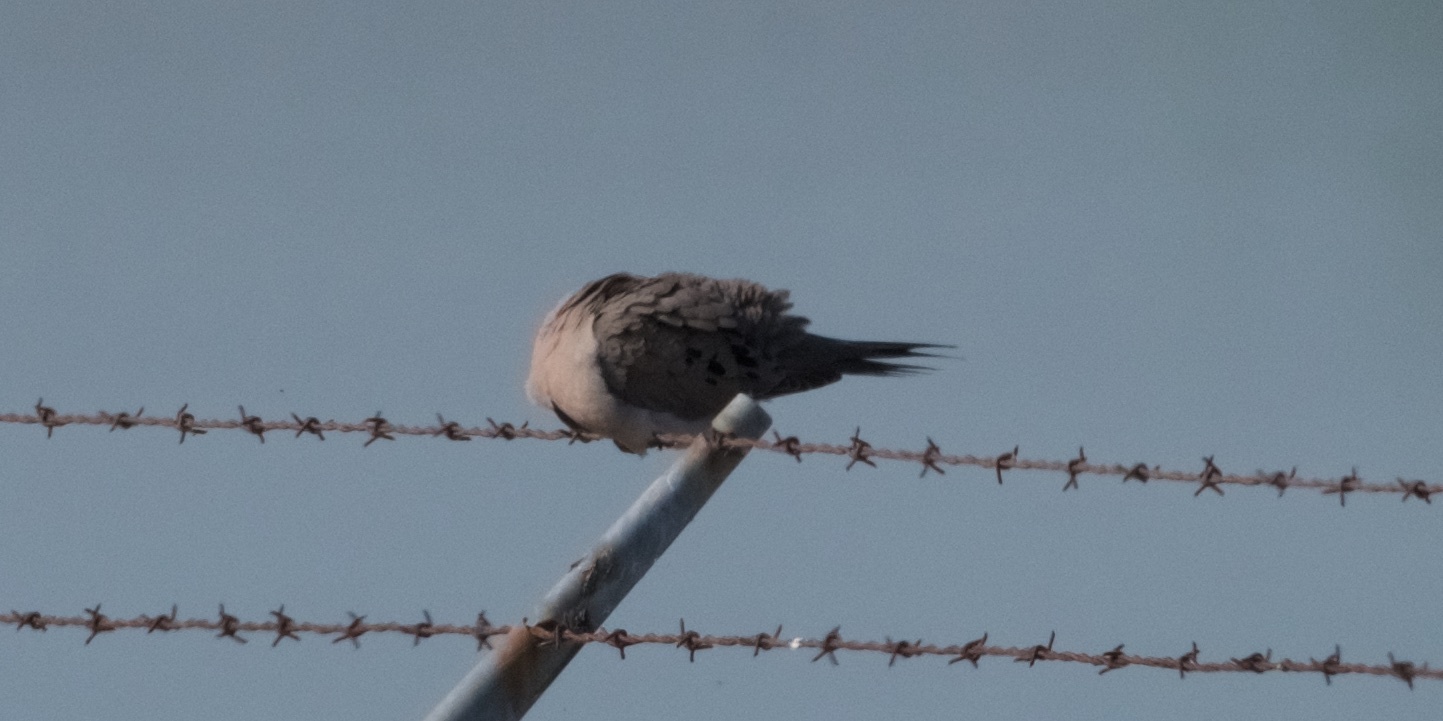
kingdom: Animalia
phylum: Chordata
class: Aves
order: Columbiformes
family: Columbidae
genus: Zenaida
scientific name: Zenaida macroura
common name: Mourning dove
